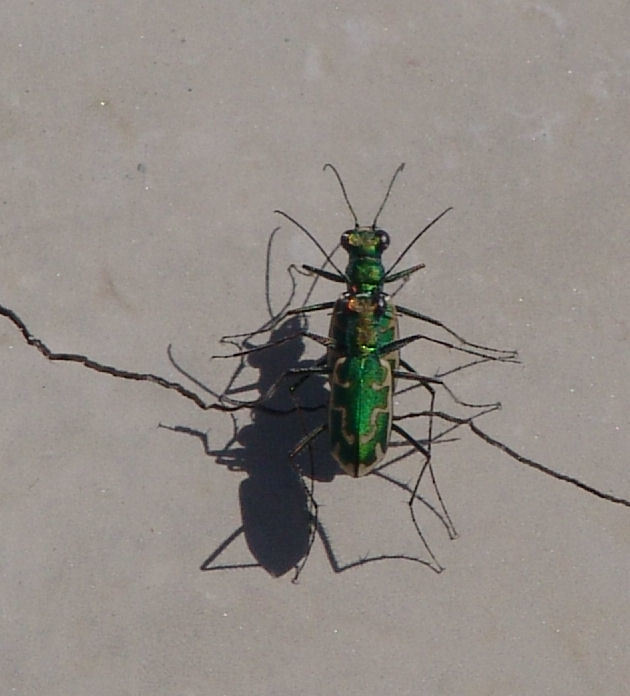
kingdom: Animalia
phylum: Arthropoda
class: Insecta
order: Coleoptera
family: Carabidae
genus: Ellipsoptera
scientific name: Ellipsoptera rubicunda
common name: Aridland tiger beetle
